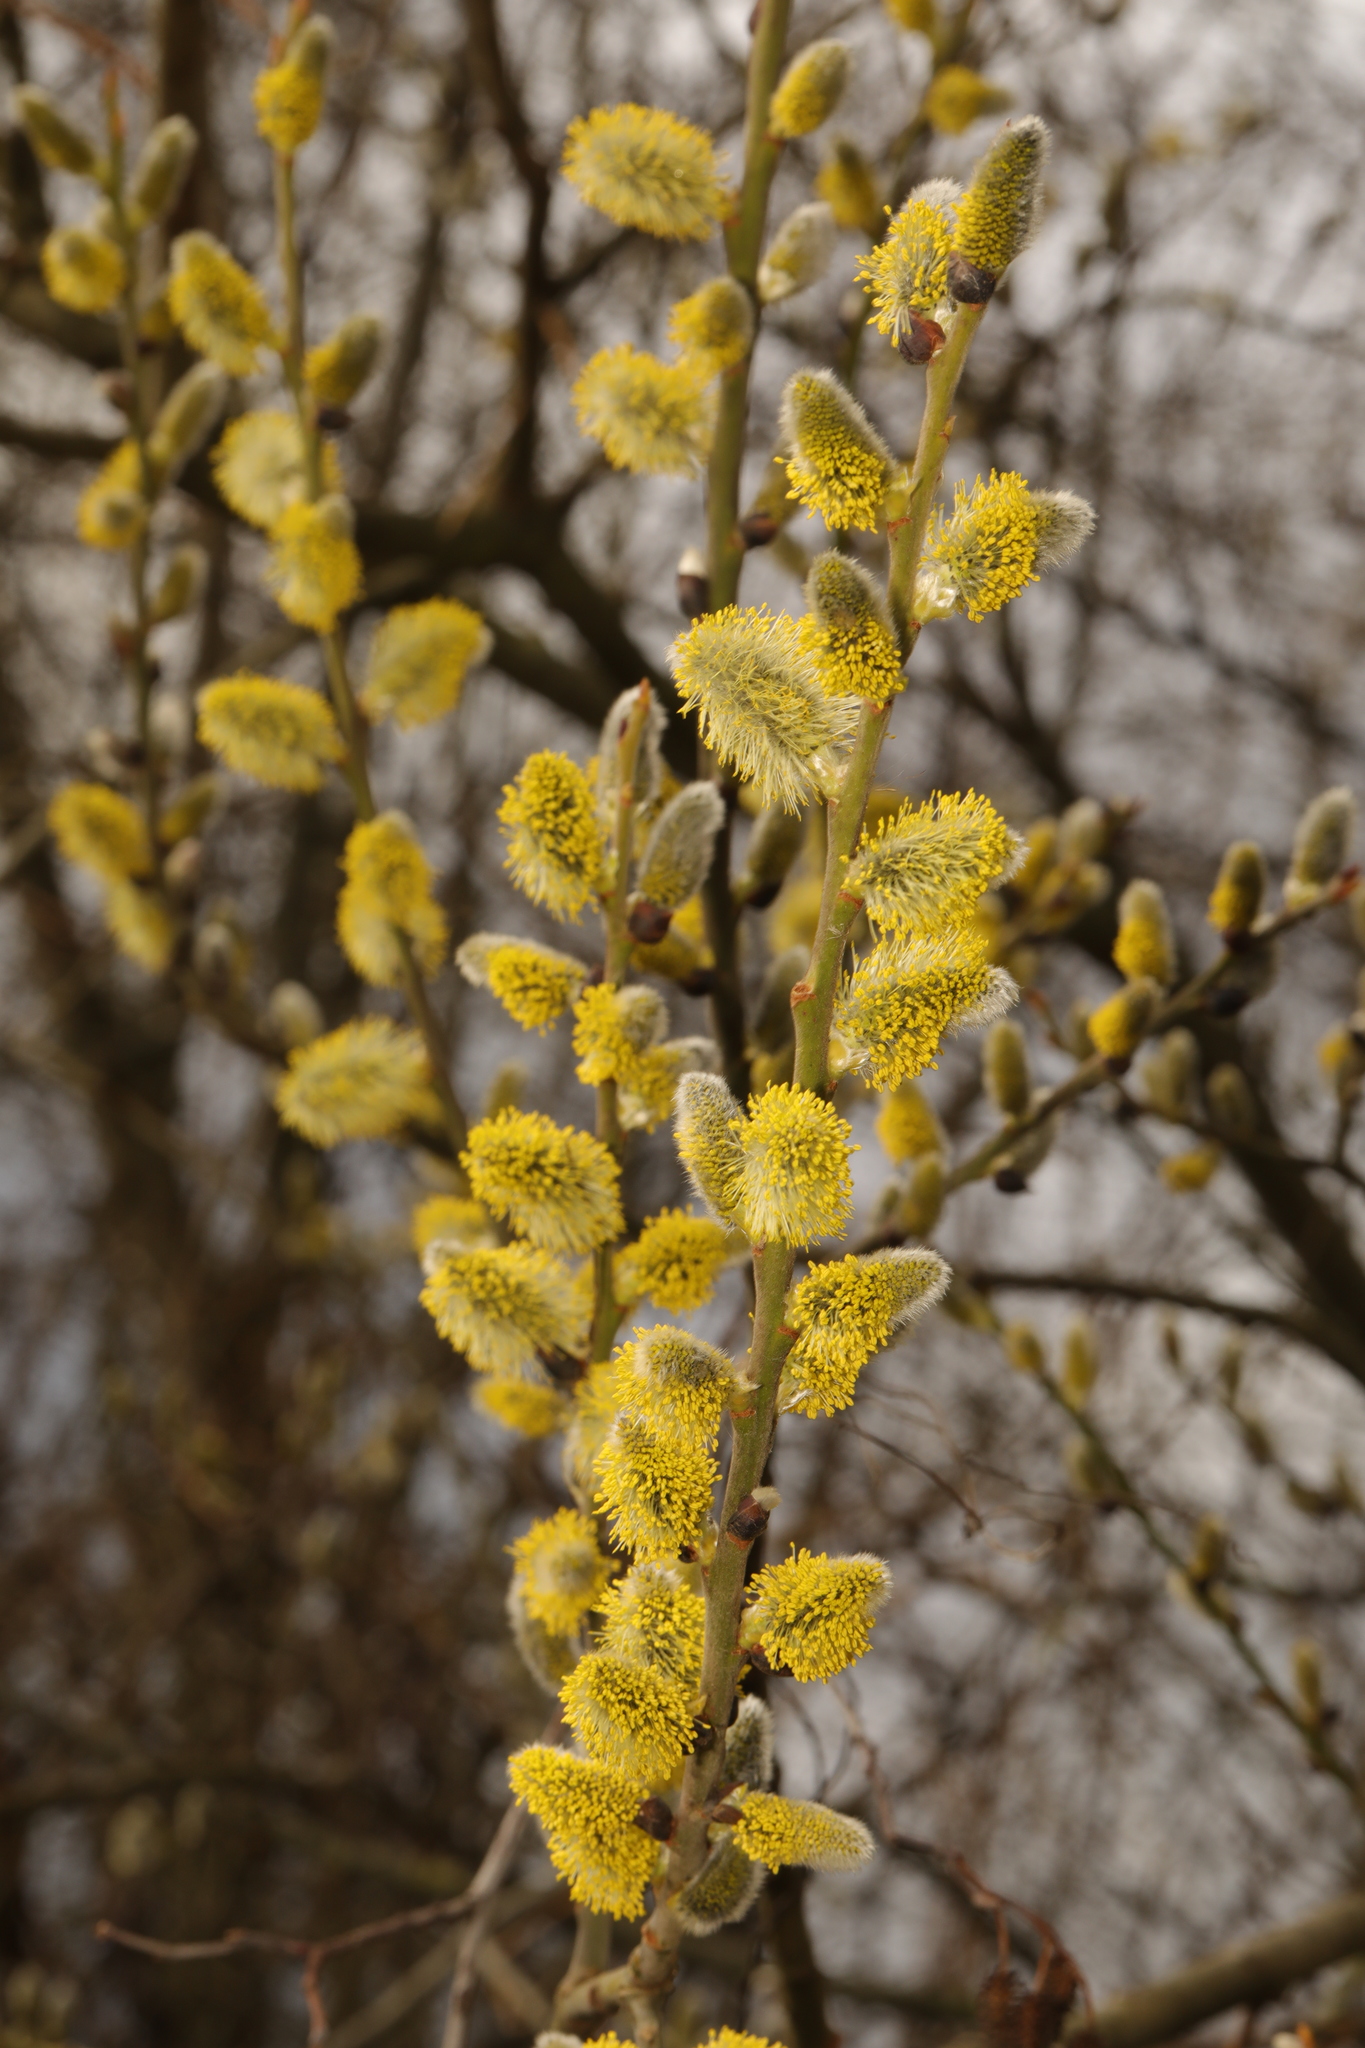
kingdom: Plantae
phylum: Tracheophyta
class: Magnoliopsida
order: Malpighiales
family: Salicaceae
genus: Salix
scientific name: Salix caprea
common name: Goat willow
